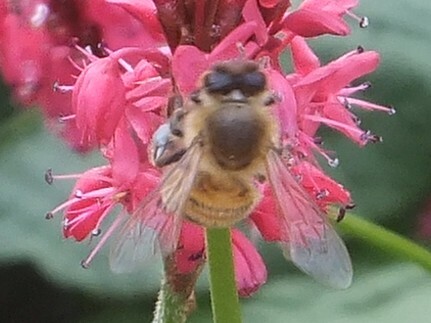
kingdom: Animalia
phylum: Arthropoda
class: Insecta
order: Hymenoptera
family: Apidae
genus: Apis
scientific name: Apis mellifera
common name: Honey bee
